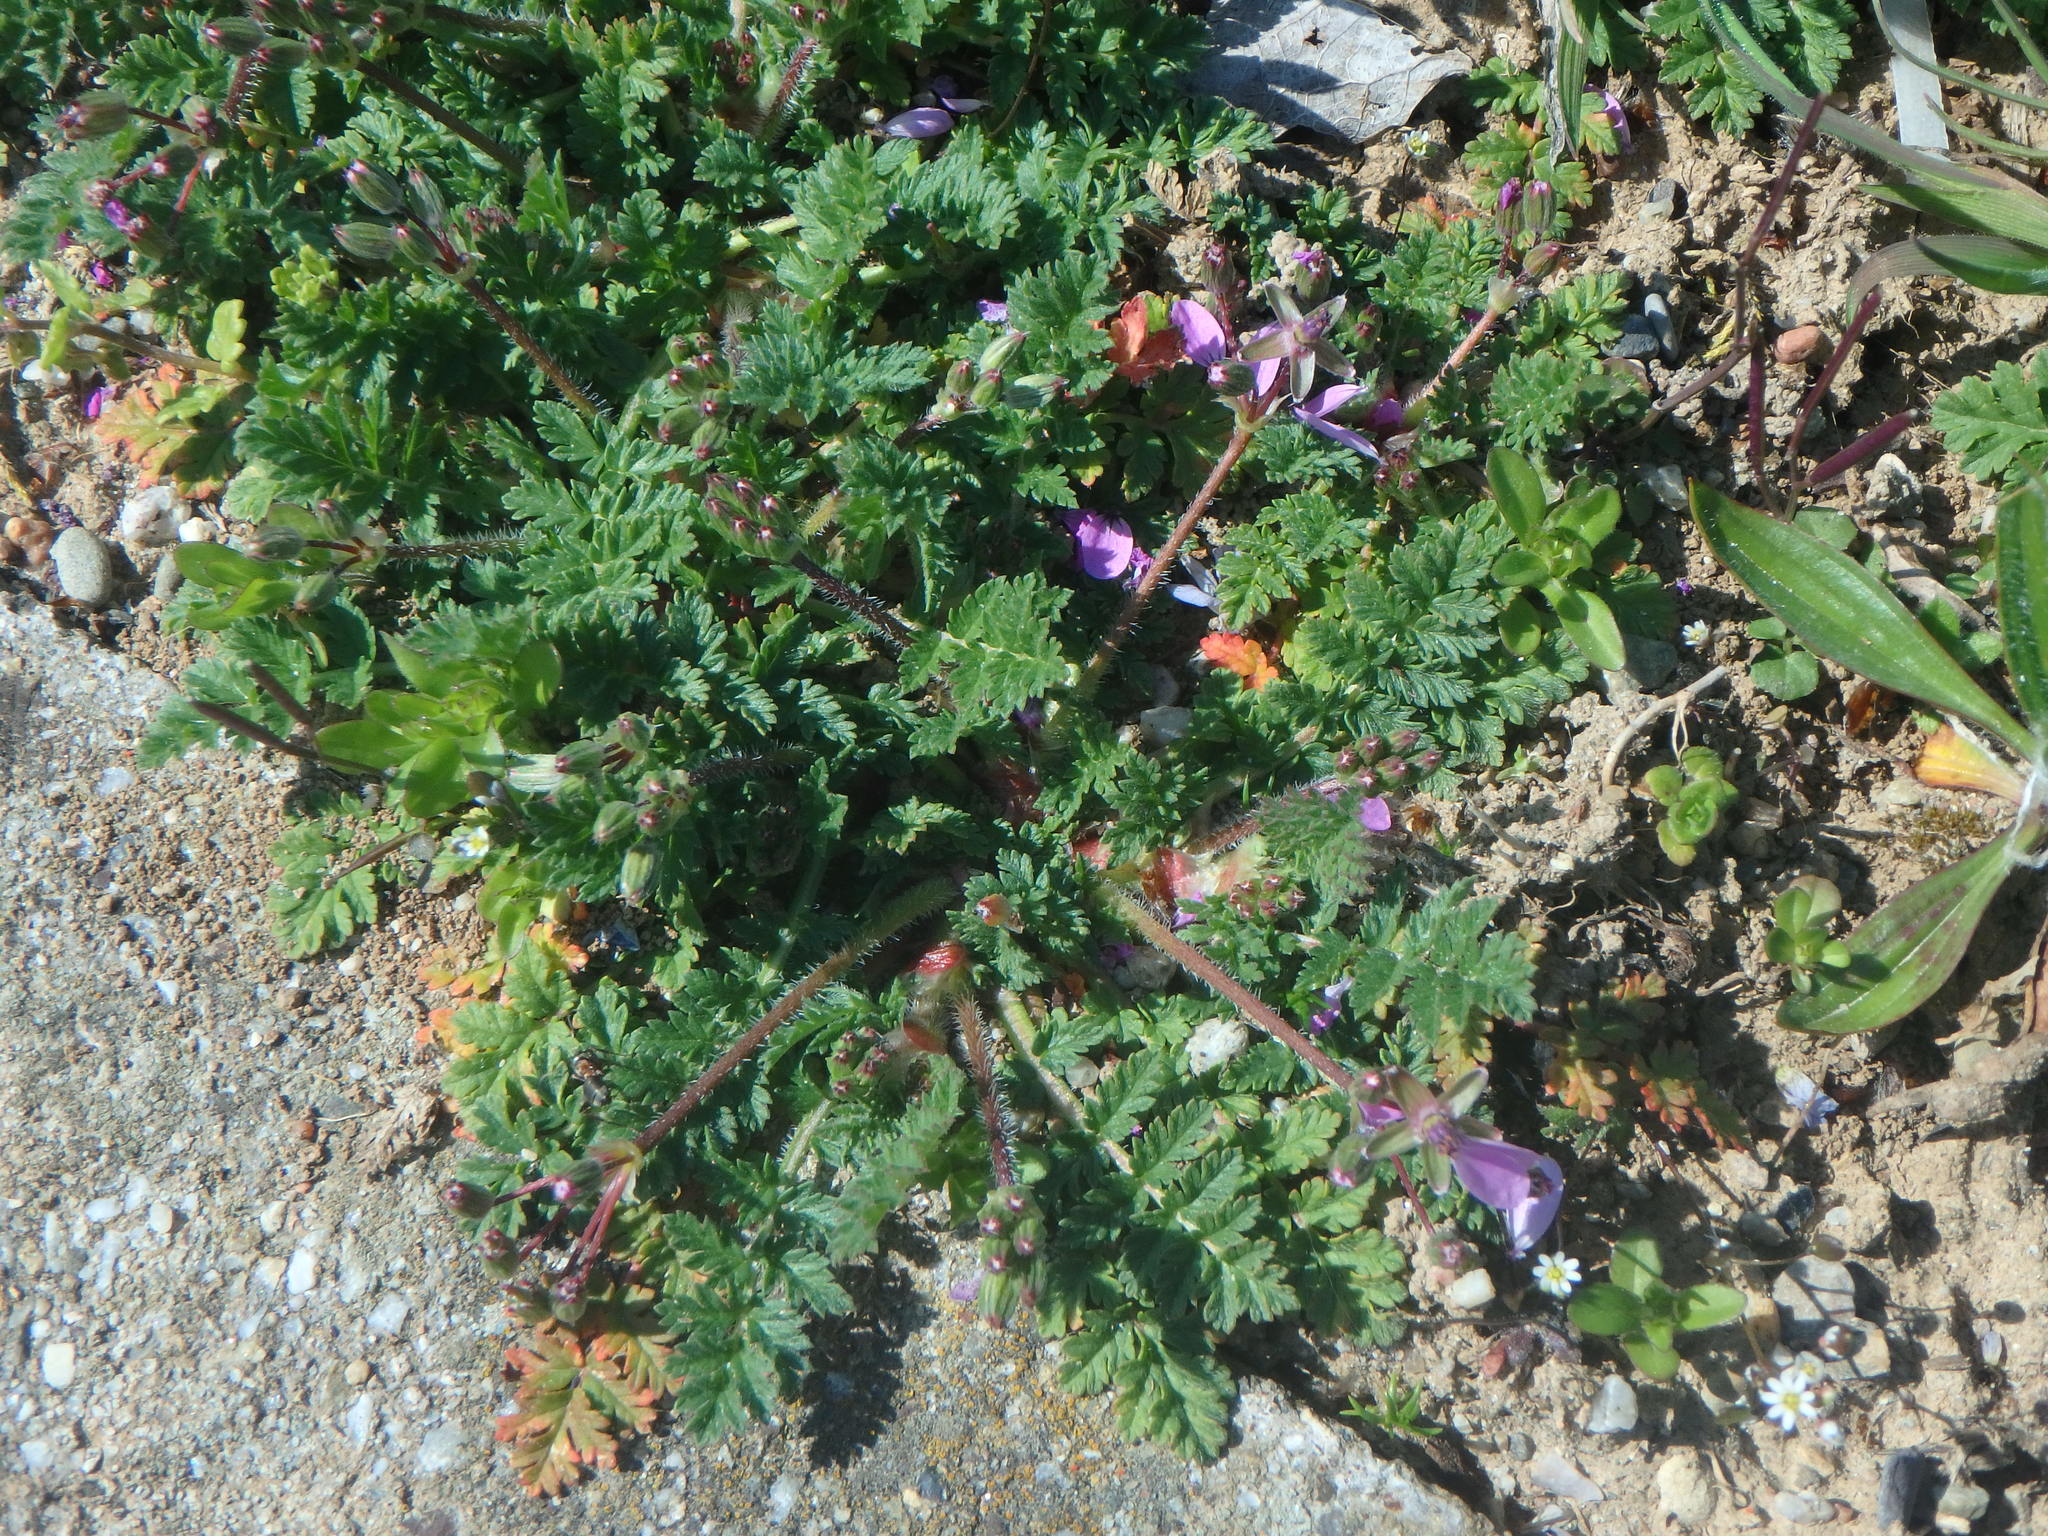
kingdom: Plantae
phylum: Tracheophyta
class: Magnoliopsida
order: Geraniales
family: Geraniaceae
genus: Erodium
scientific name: Erodium cicutarium
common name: Common stork's-bill
